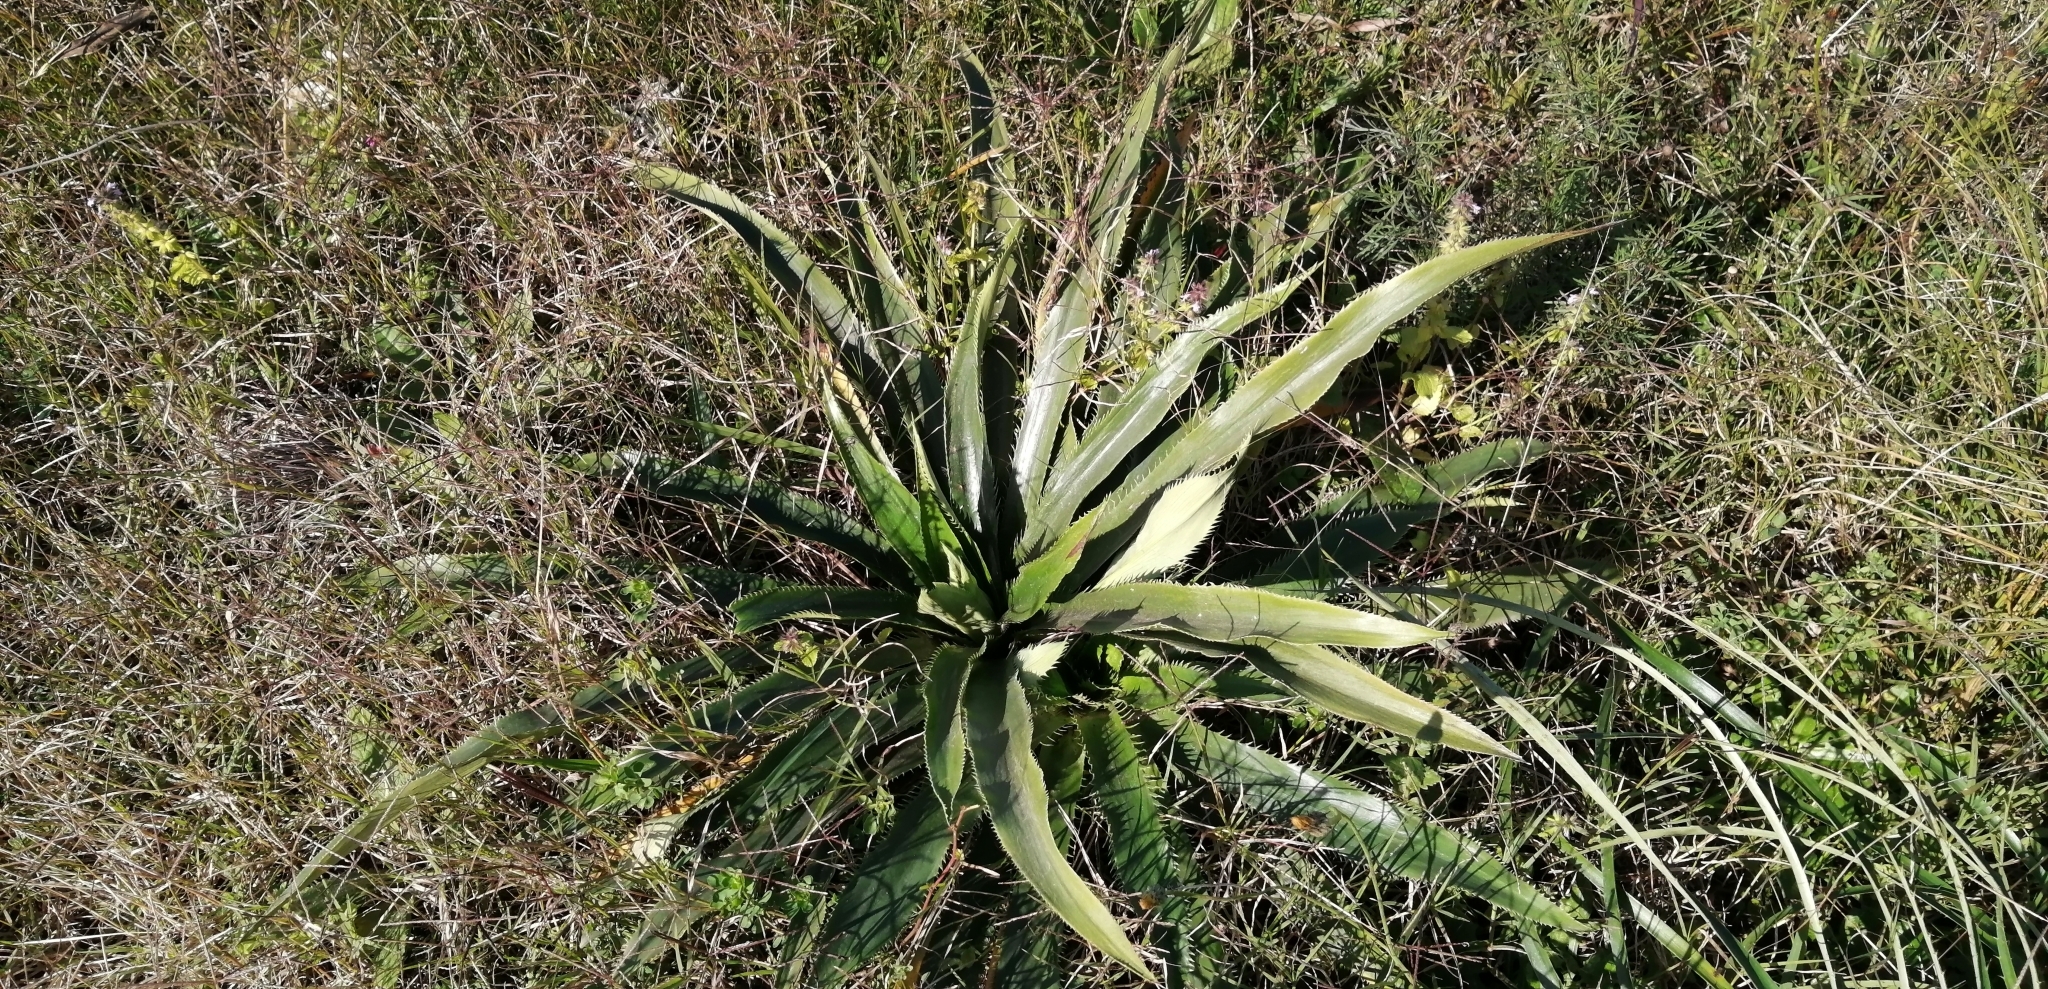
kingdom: Plantae
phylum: Tracheophyta
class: Magnoliopsida
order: Apiales
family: Apiaceae
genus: Eryngium
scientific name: Eryngium elegans
